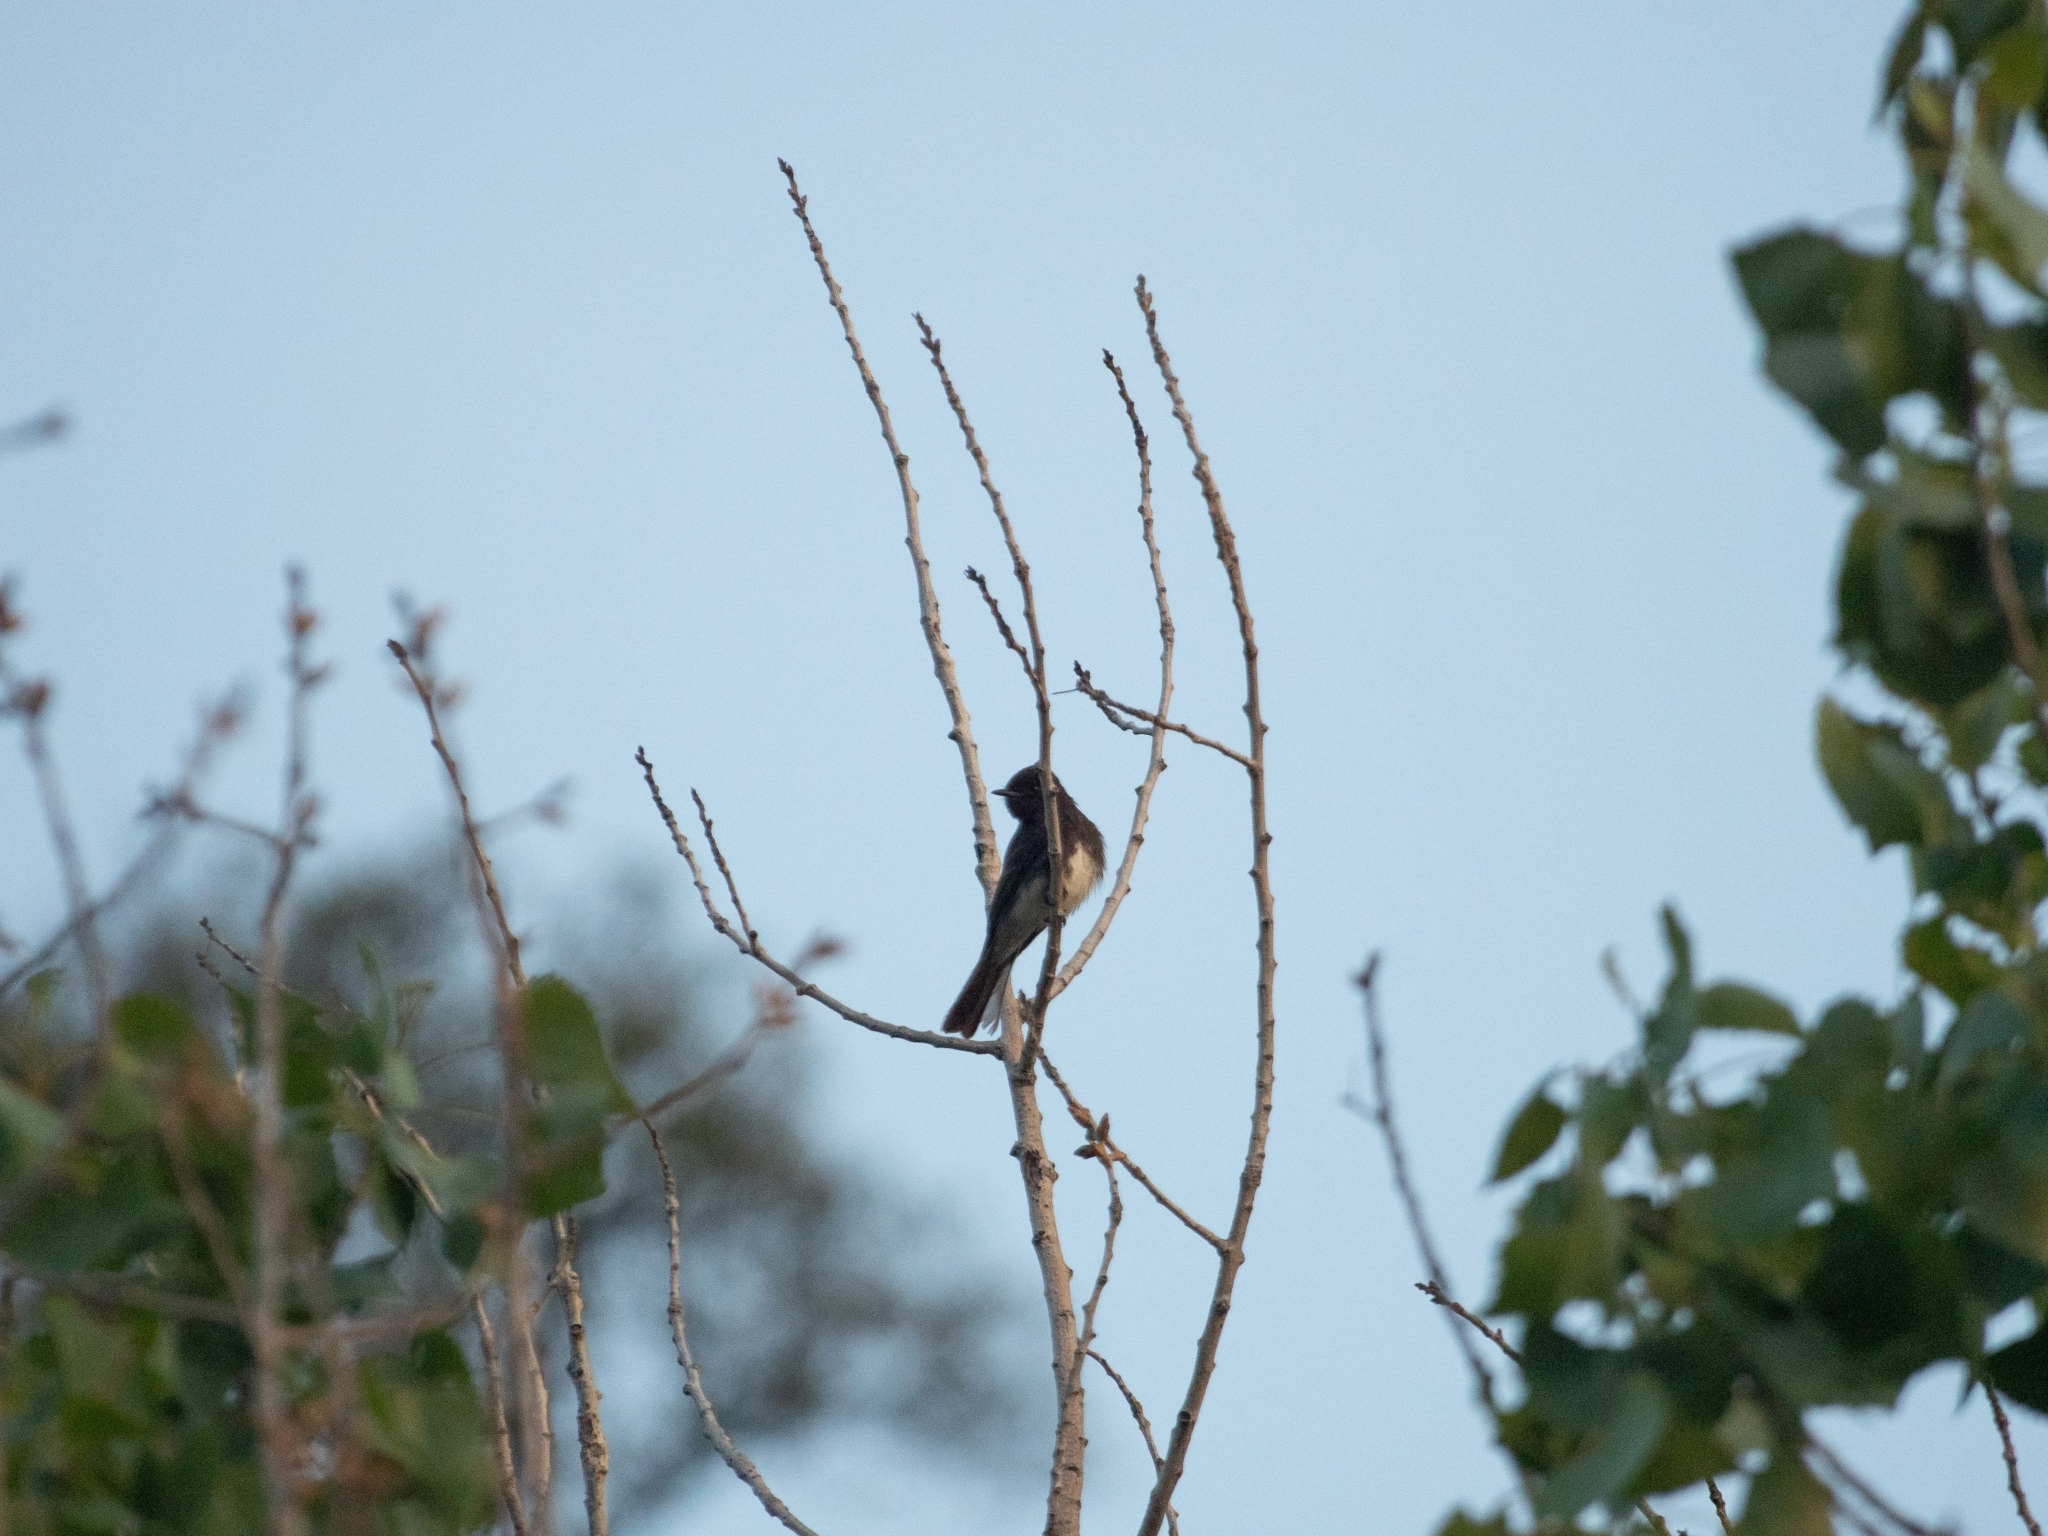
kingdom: Animalia
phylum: Chordata
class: Aves
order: Passeriformes
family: Tyrannidae
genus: Sayornis
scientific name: Sayornis nigricans
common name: Black phoebe
